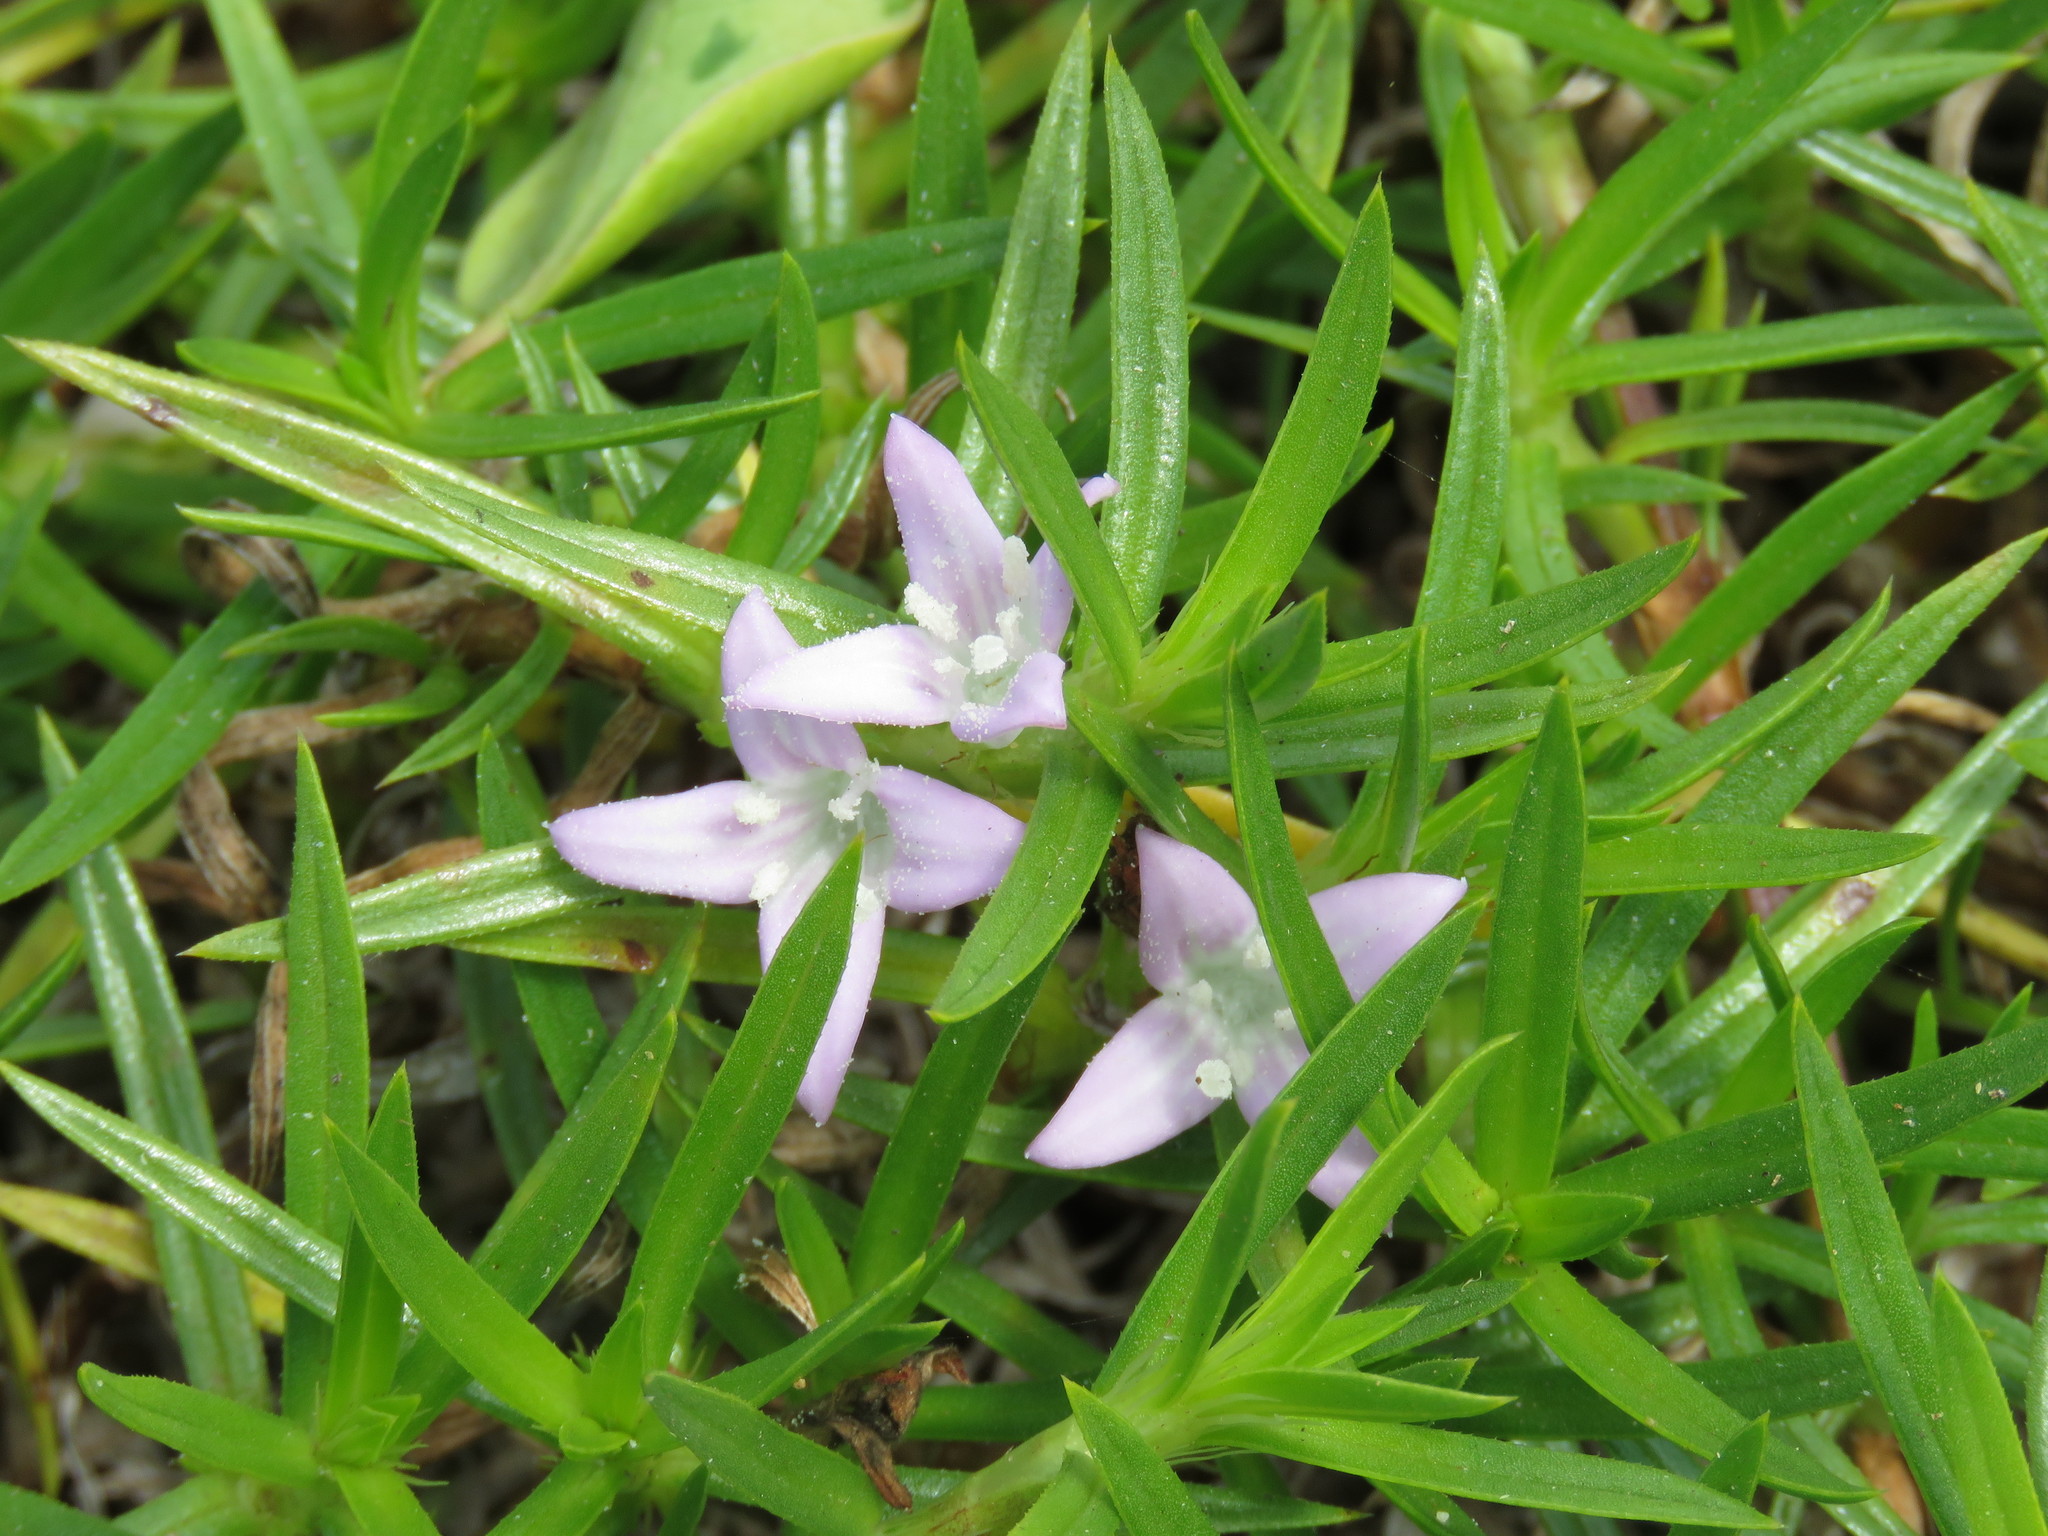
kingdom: Plantae
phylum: Tracheophyta
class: Magnoliopsida
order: Gentianales
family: Rubiaceae
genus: Hexasepalum
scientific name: Hexasepalum angustifolium
